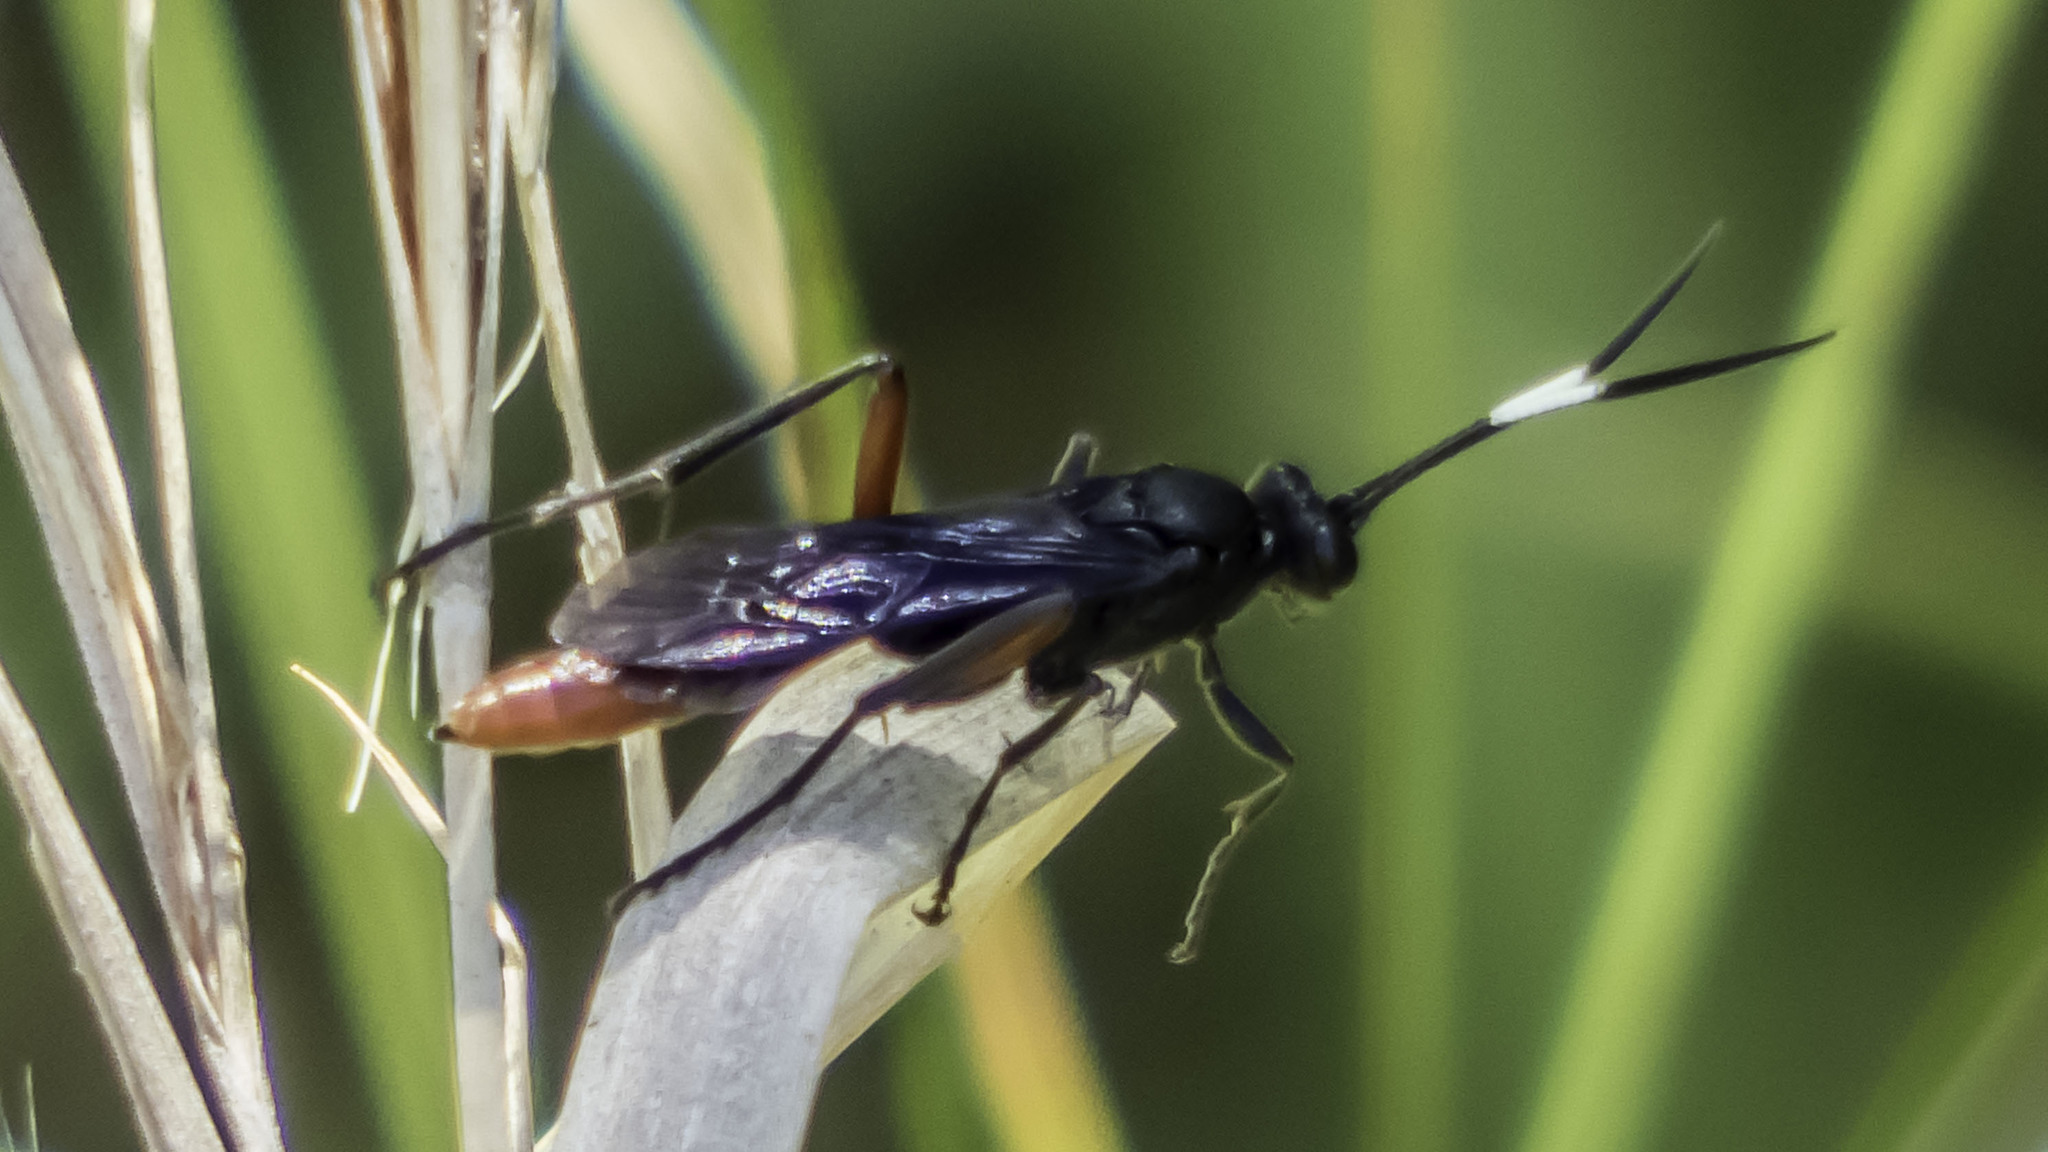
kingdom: Animalia
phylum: Arthropoda
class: Insecta
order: Hymenoptera
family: Ichneumonidae
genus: Limonethe
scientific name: Limonethe maurator
